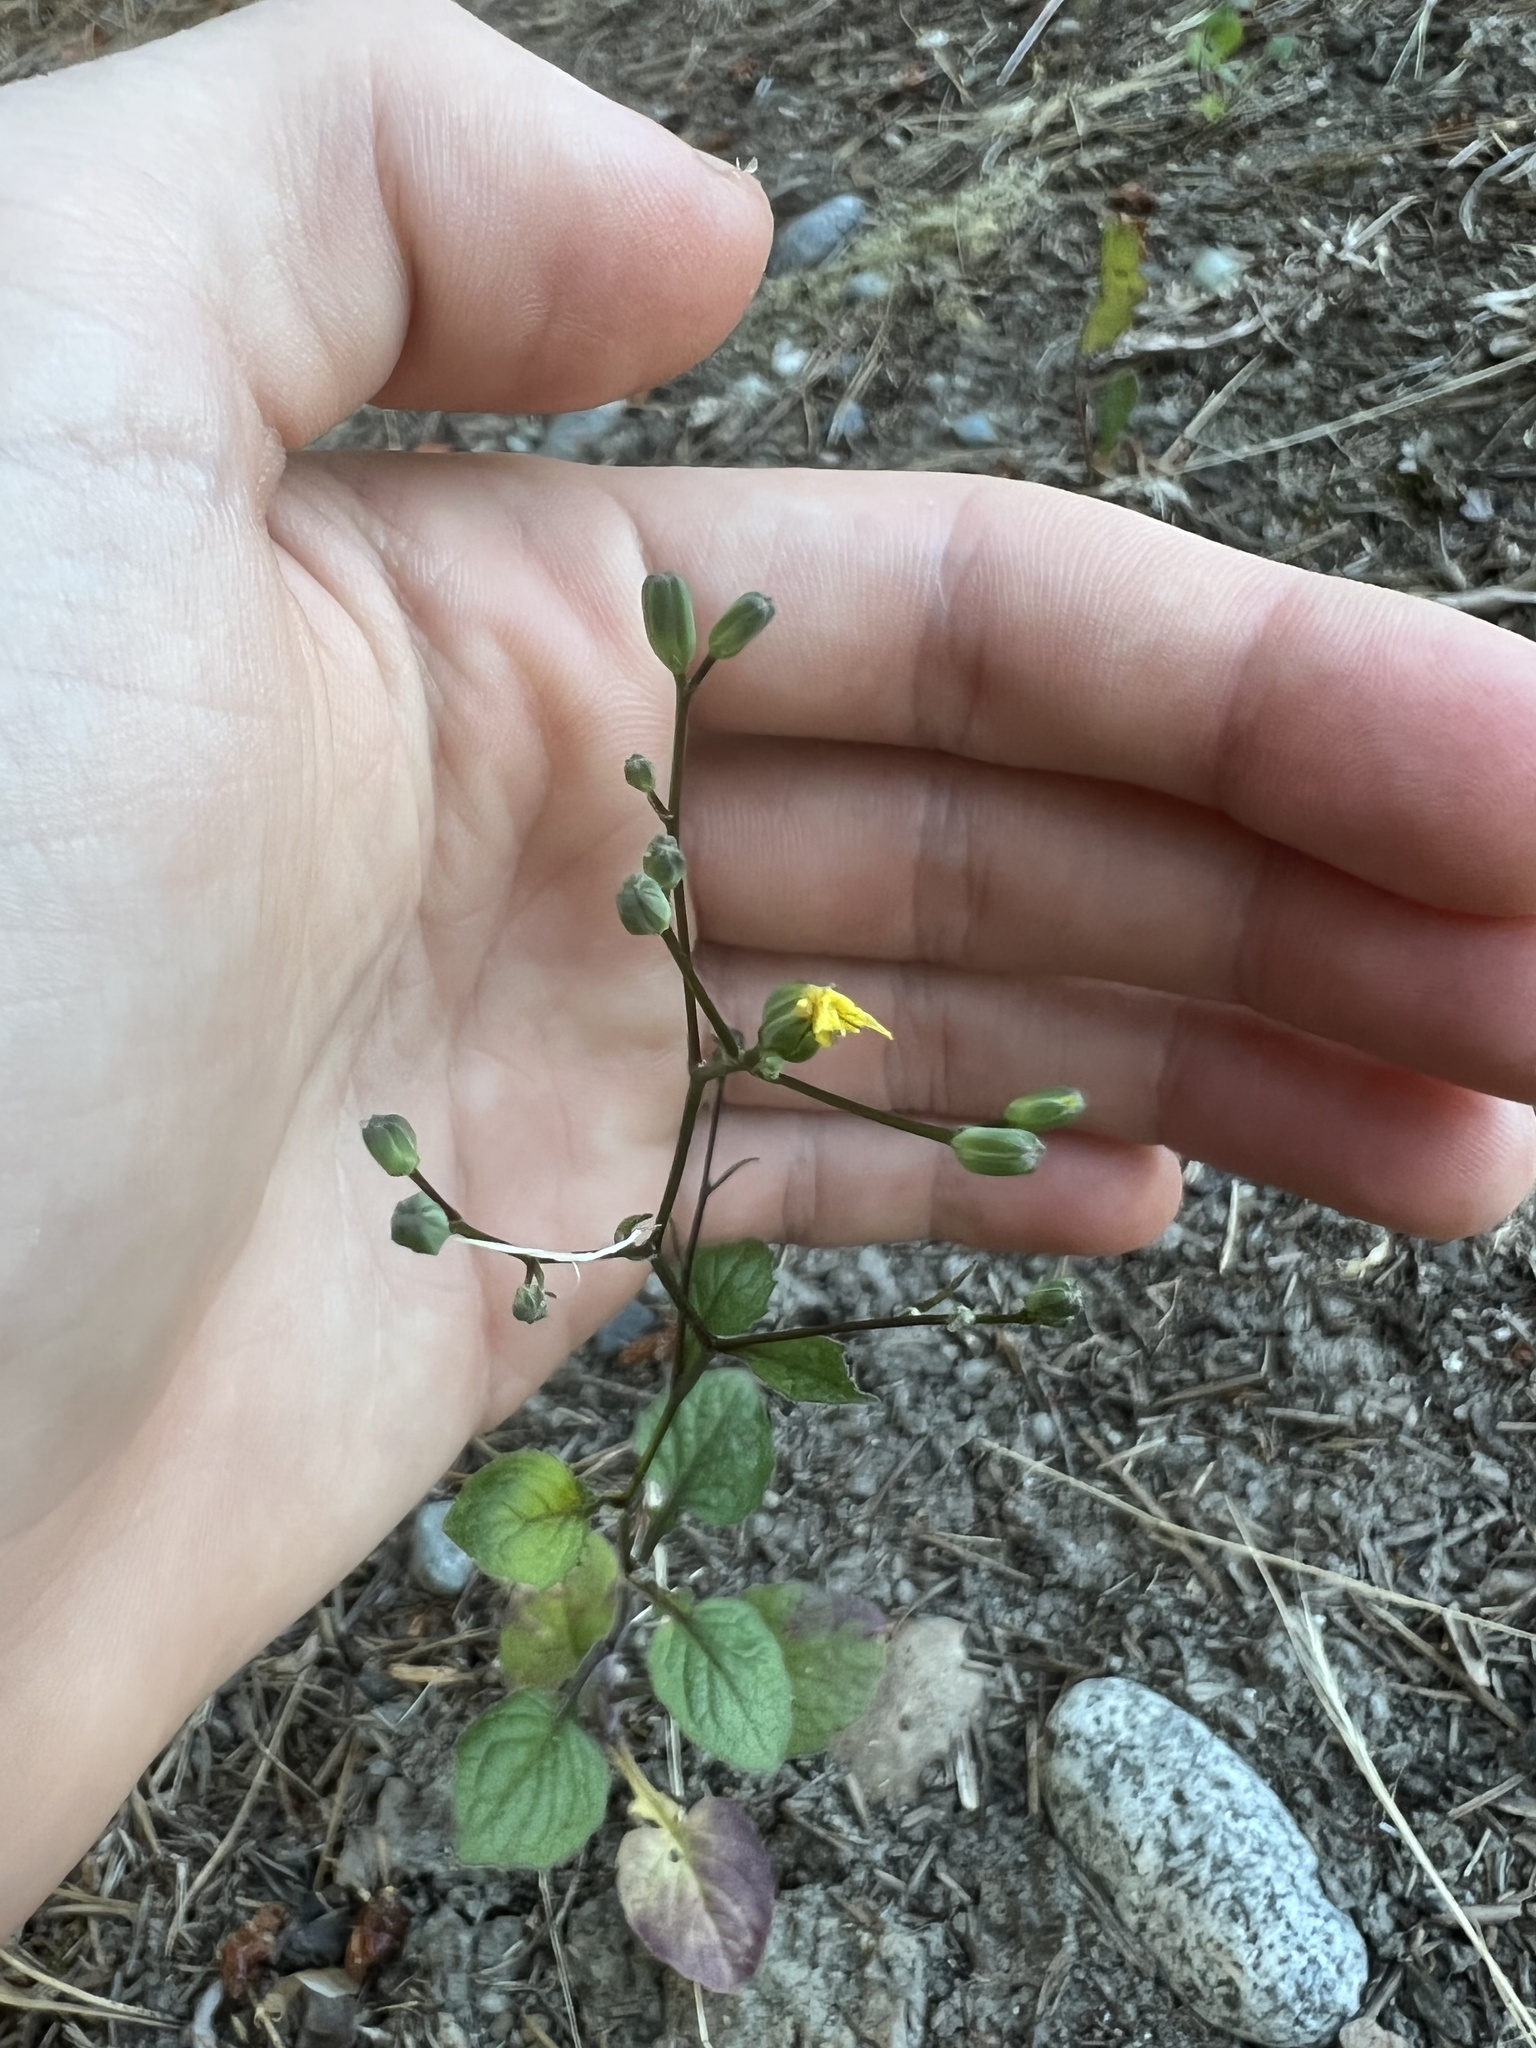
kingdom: Plantae
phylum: Tracheophyta
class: Magnoliopsida
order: Asterales
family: Asteraceae
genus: Lapsana
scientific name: Lapsana communis
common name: Nipplewort
